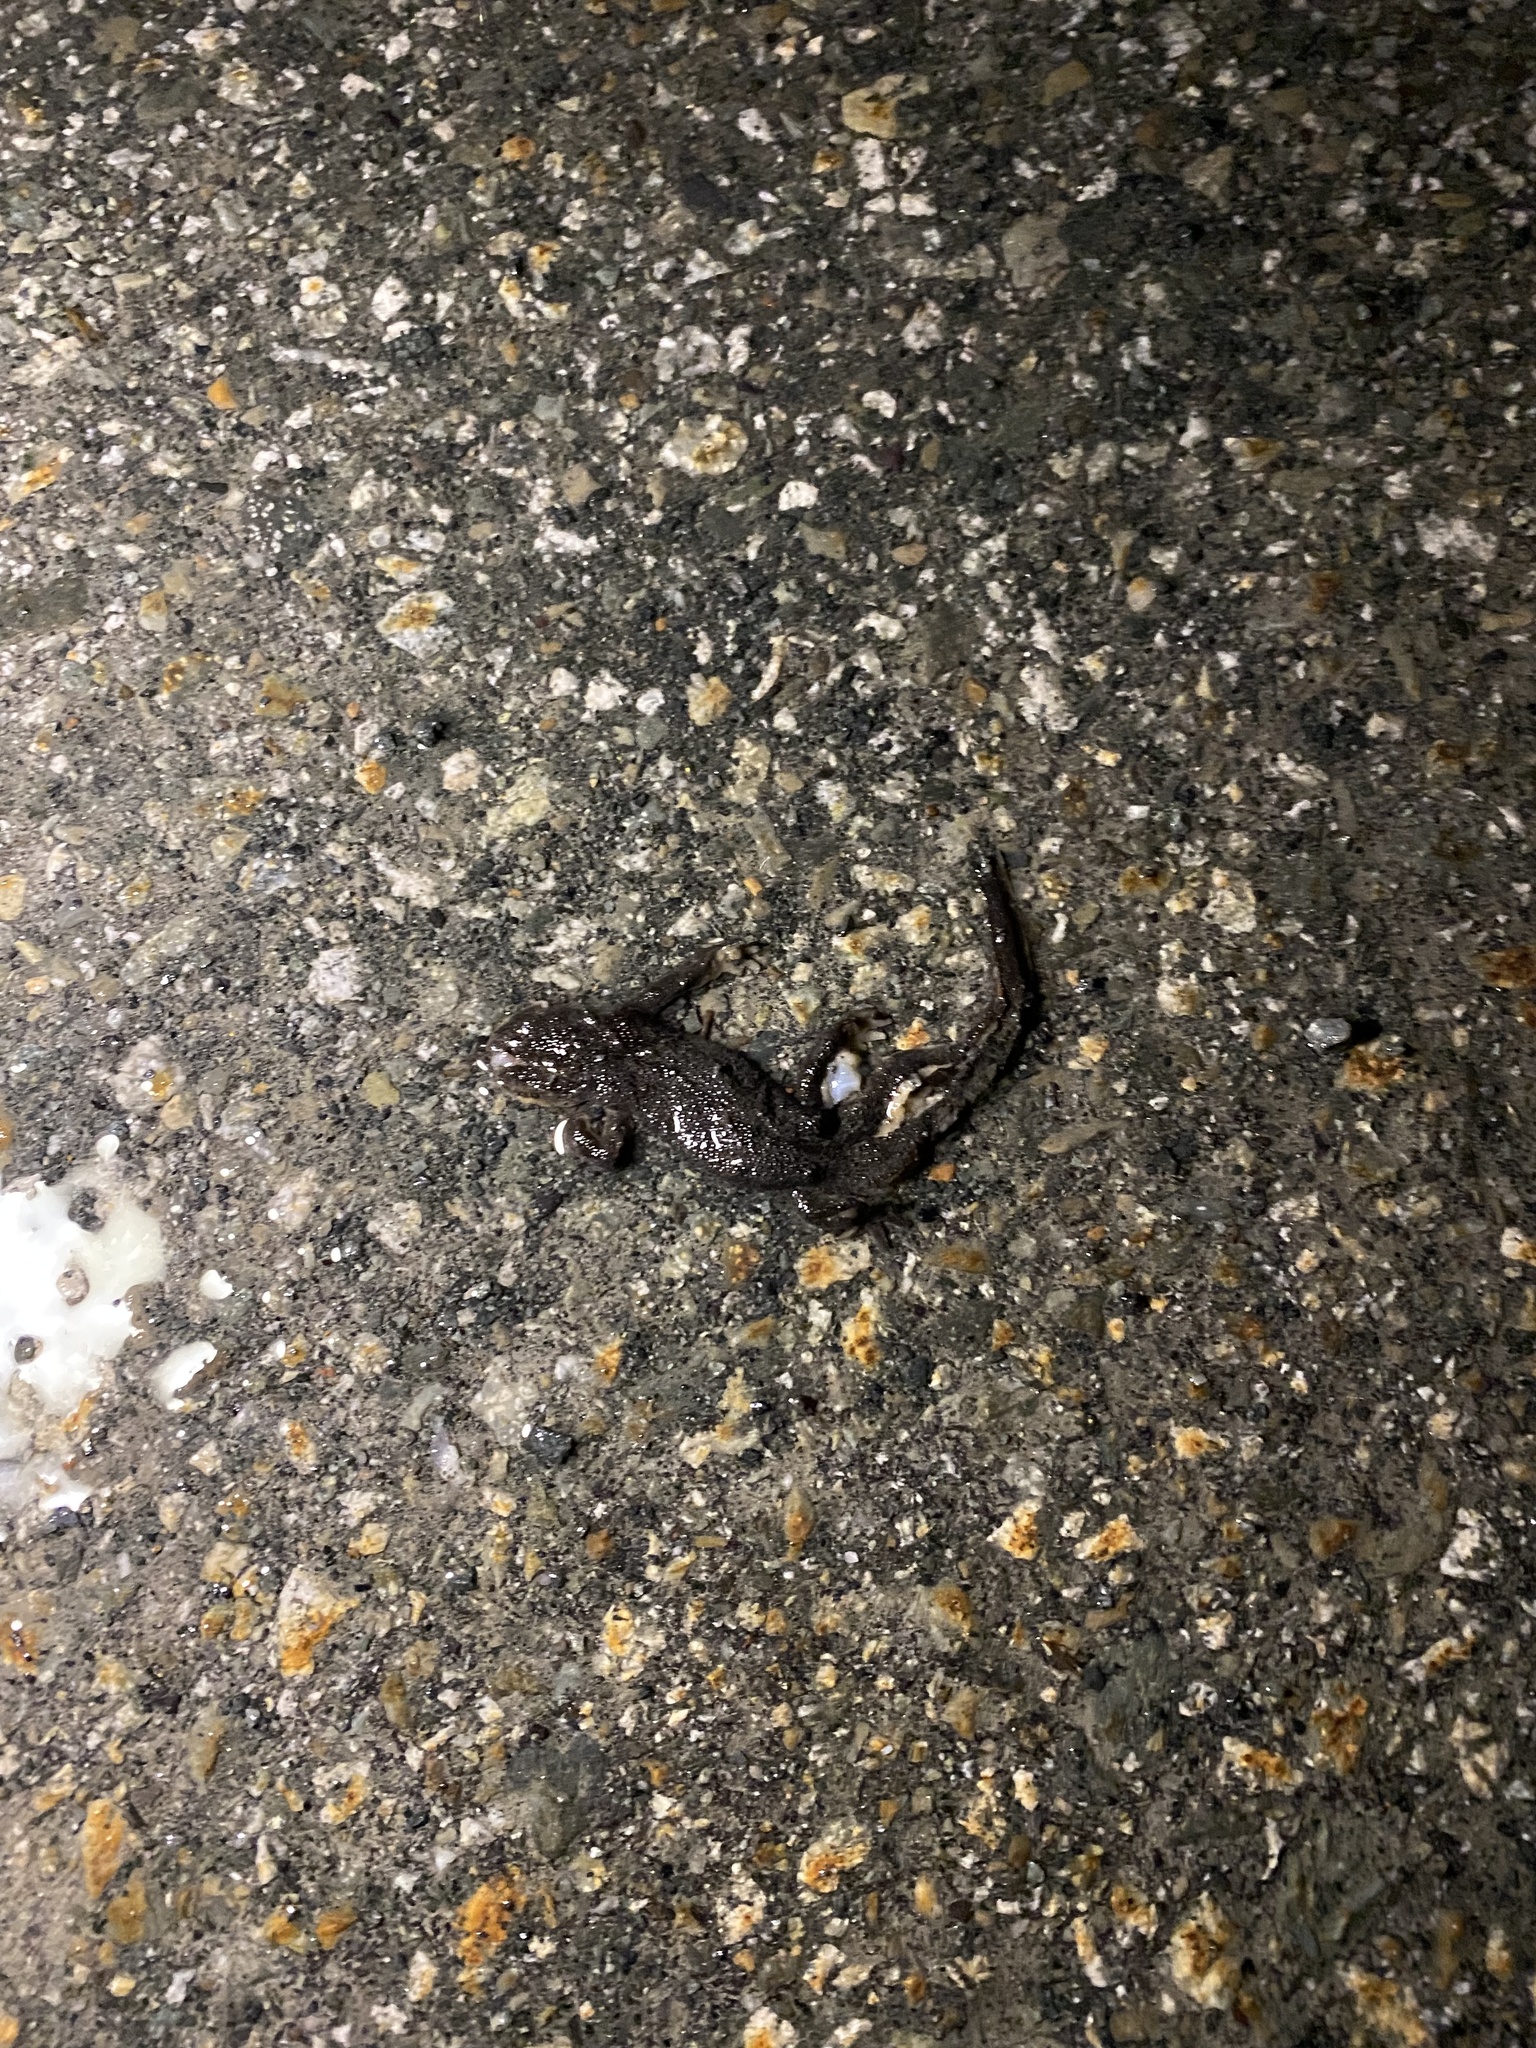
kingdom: Animalia
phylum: Chordata
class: Amphibia
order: Caudata
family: Salamandridae
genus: Taricha
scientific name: Taricha granulosa
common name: Roughskin newt
